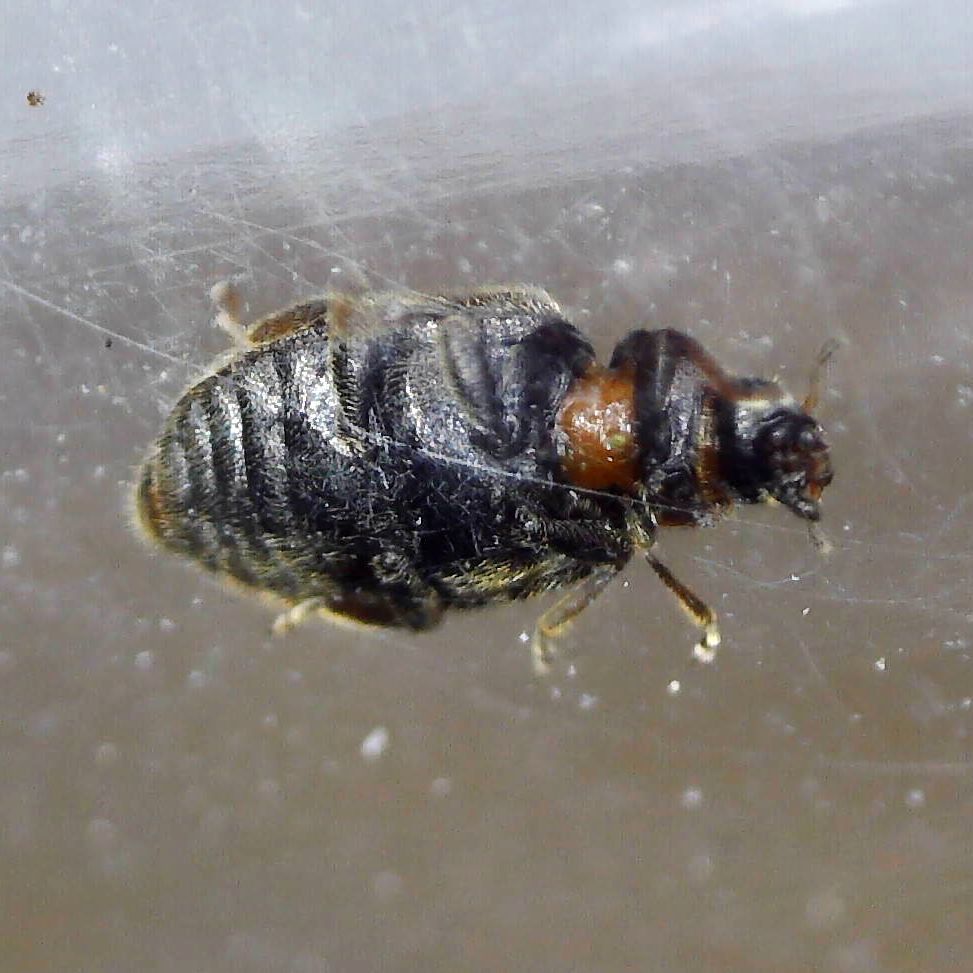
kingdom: Animalia
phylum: Arthropoda
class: Insecta
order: Coleoptera
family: Coccinellidae
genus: Scymnus
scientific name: Scymnus suturalis
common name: Ladybird beetle
